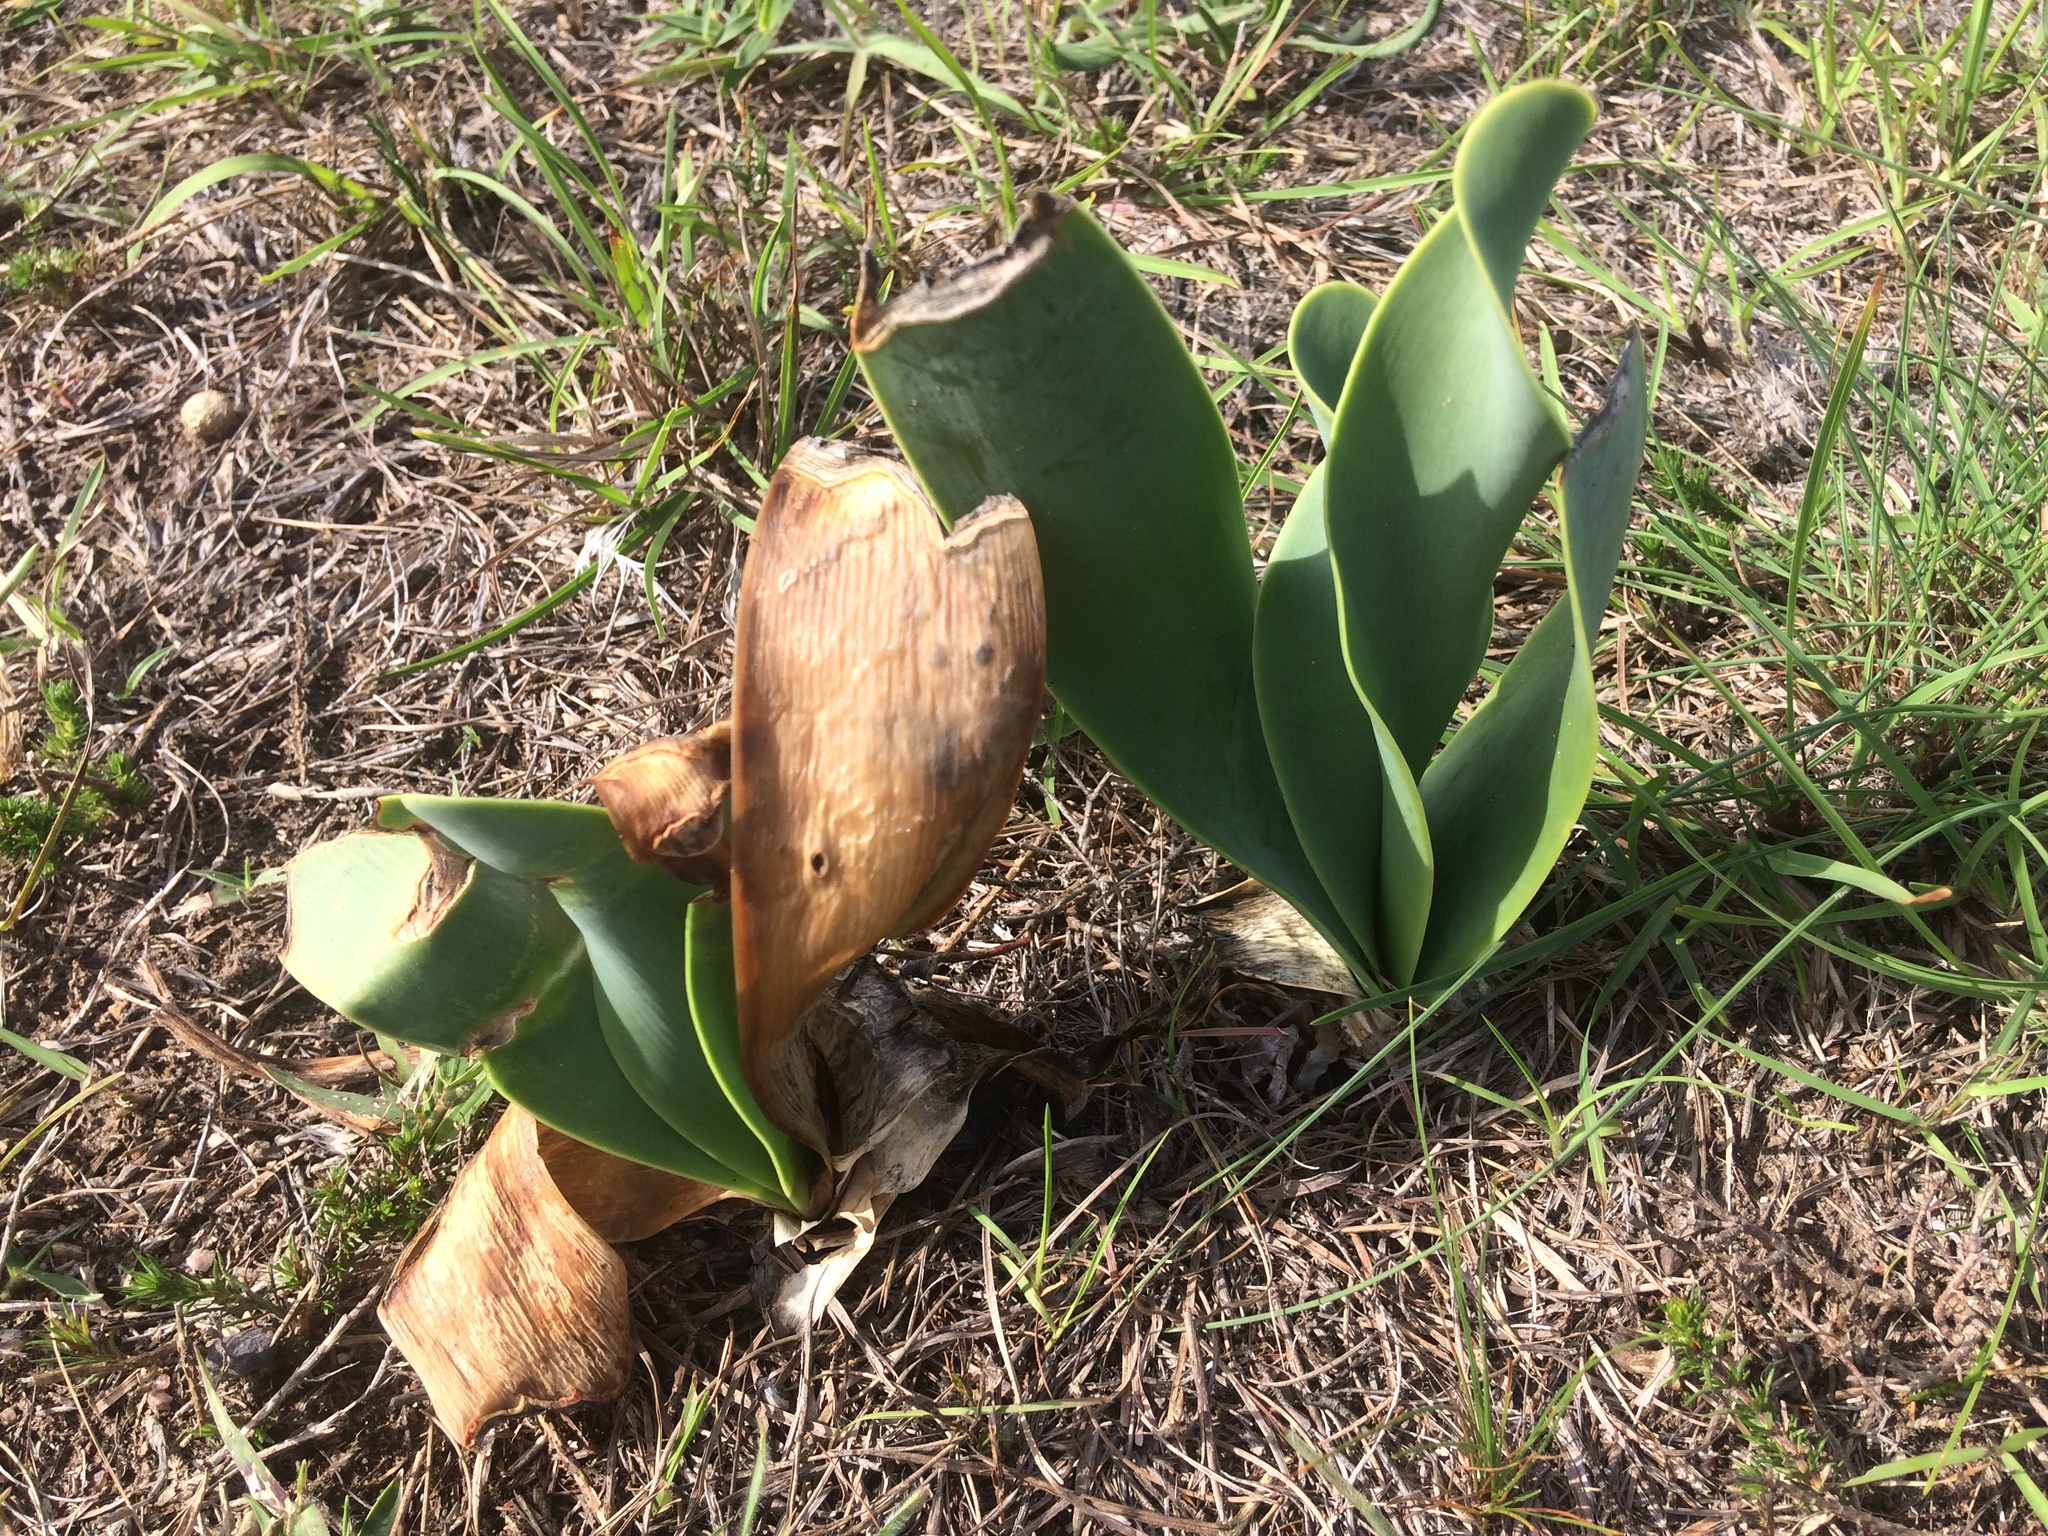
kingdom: Plantae
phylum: Tracheophyta
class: Liliopsida
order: Asparagales
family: Amaryllidaceae
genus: Cyrtanthus
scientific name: Cyrtanthus obliquus
